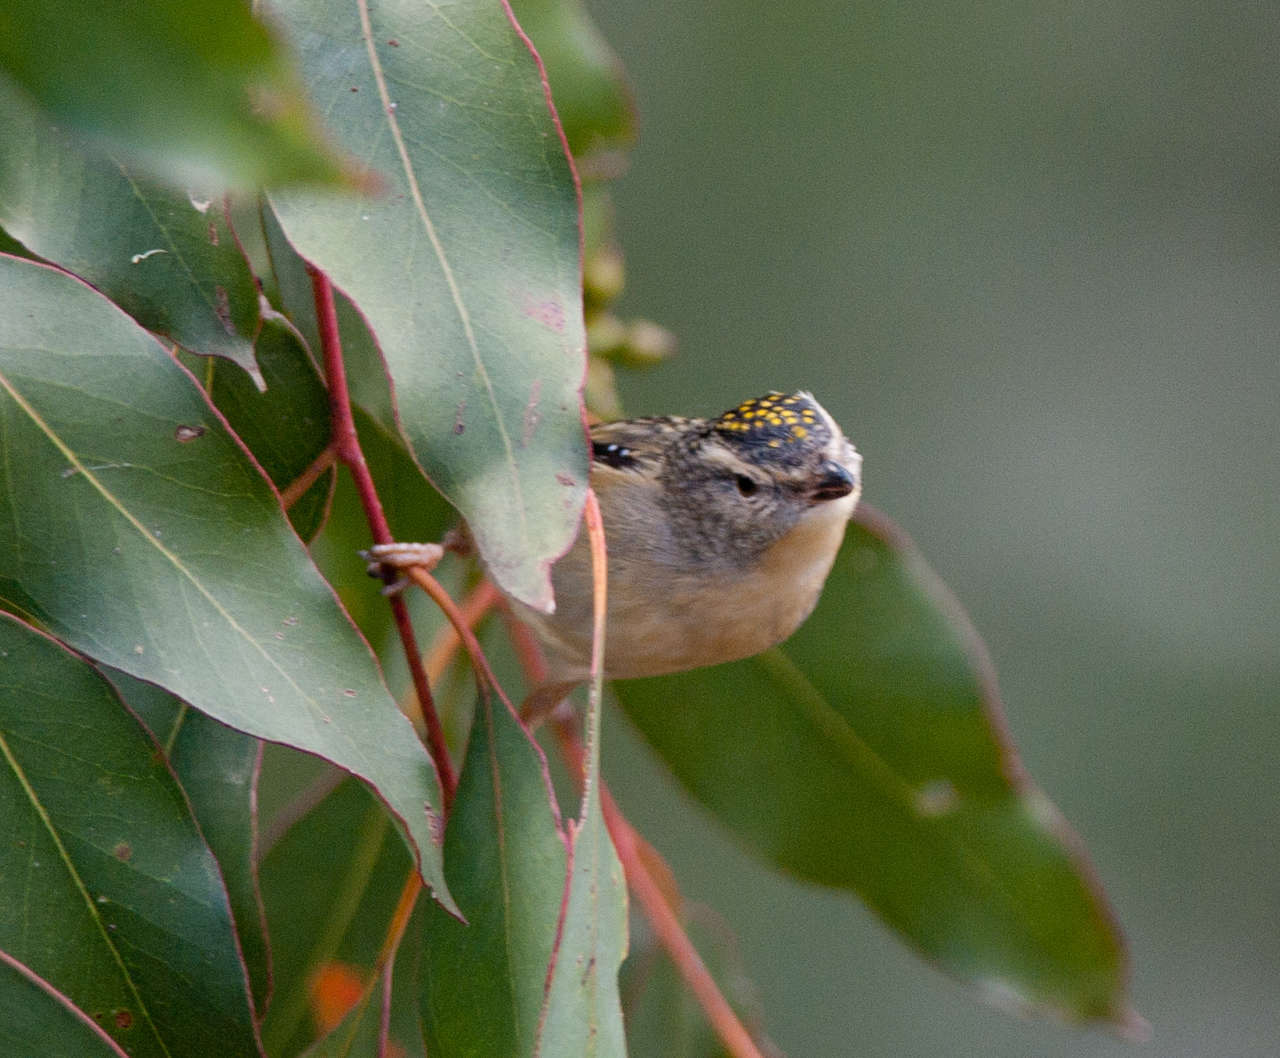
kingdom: Animalia
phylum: Chordata
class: Aves
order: Passeriformes
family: Pardalotidae
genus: Pardalotus
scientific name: Pardalotus punctatus
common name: Spotted pardalote
